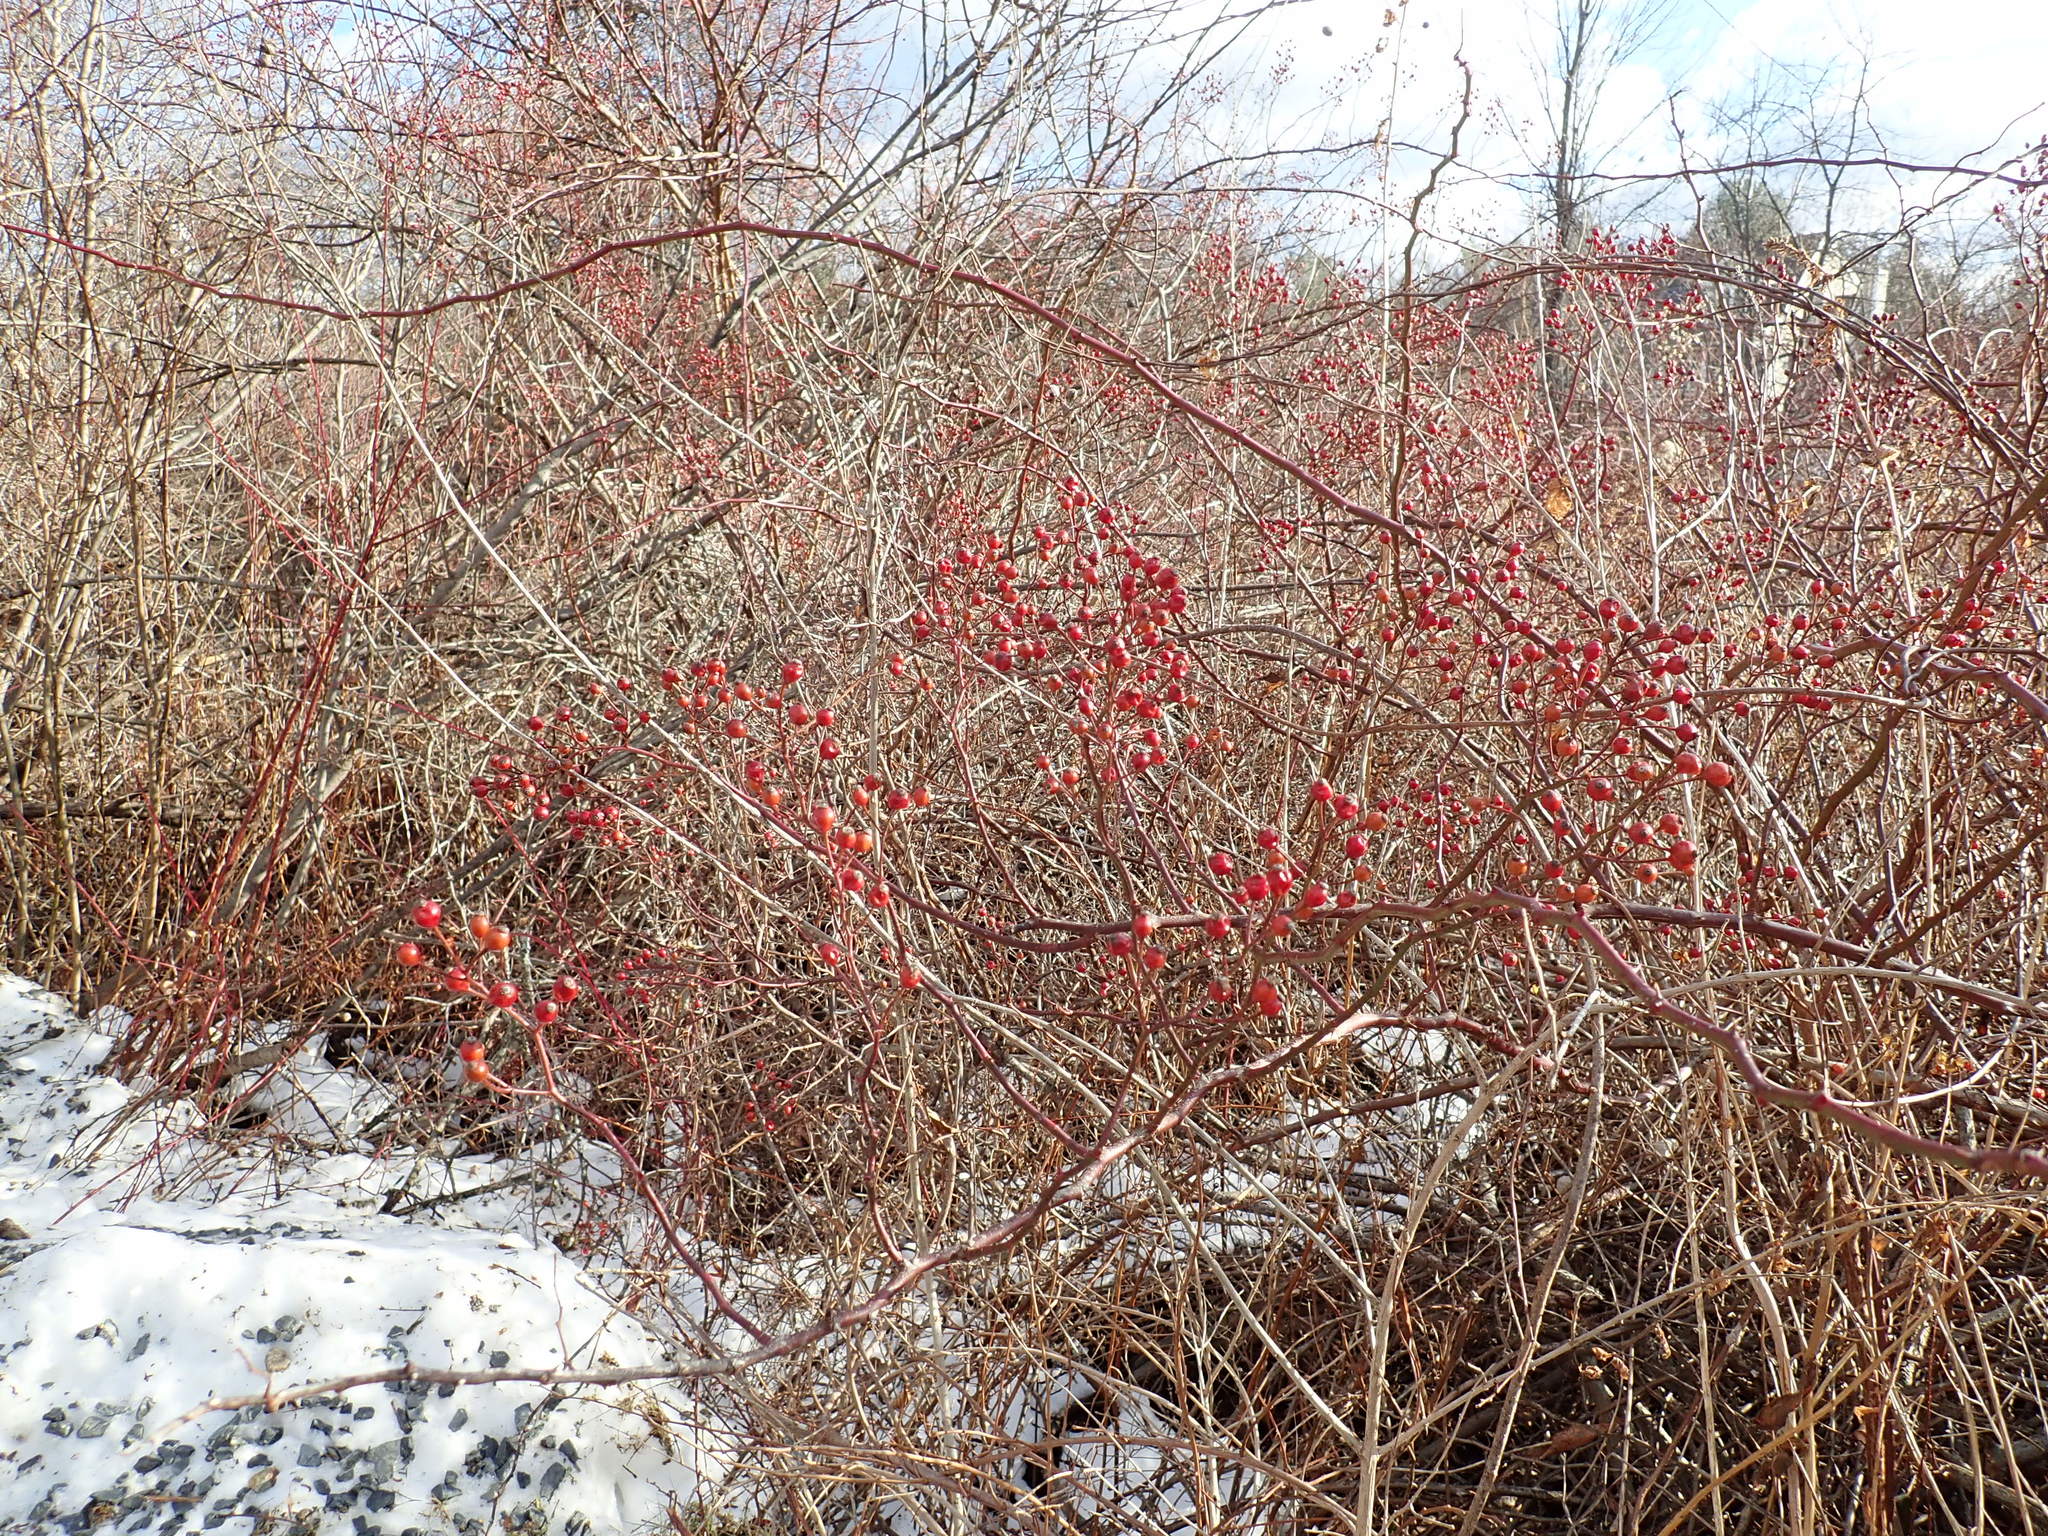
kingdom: Plantae
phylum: Tracheophyta
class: Magnoliopsida
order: Rosales
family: Rosaceae
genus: Rosa
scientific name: Rosa multiflora
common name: Multiflora rose
